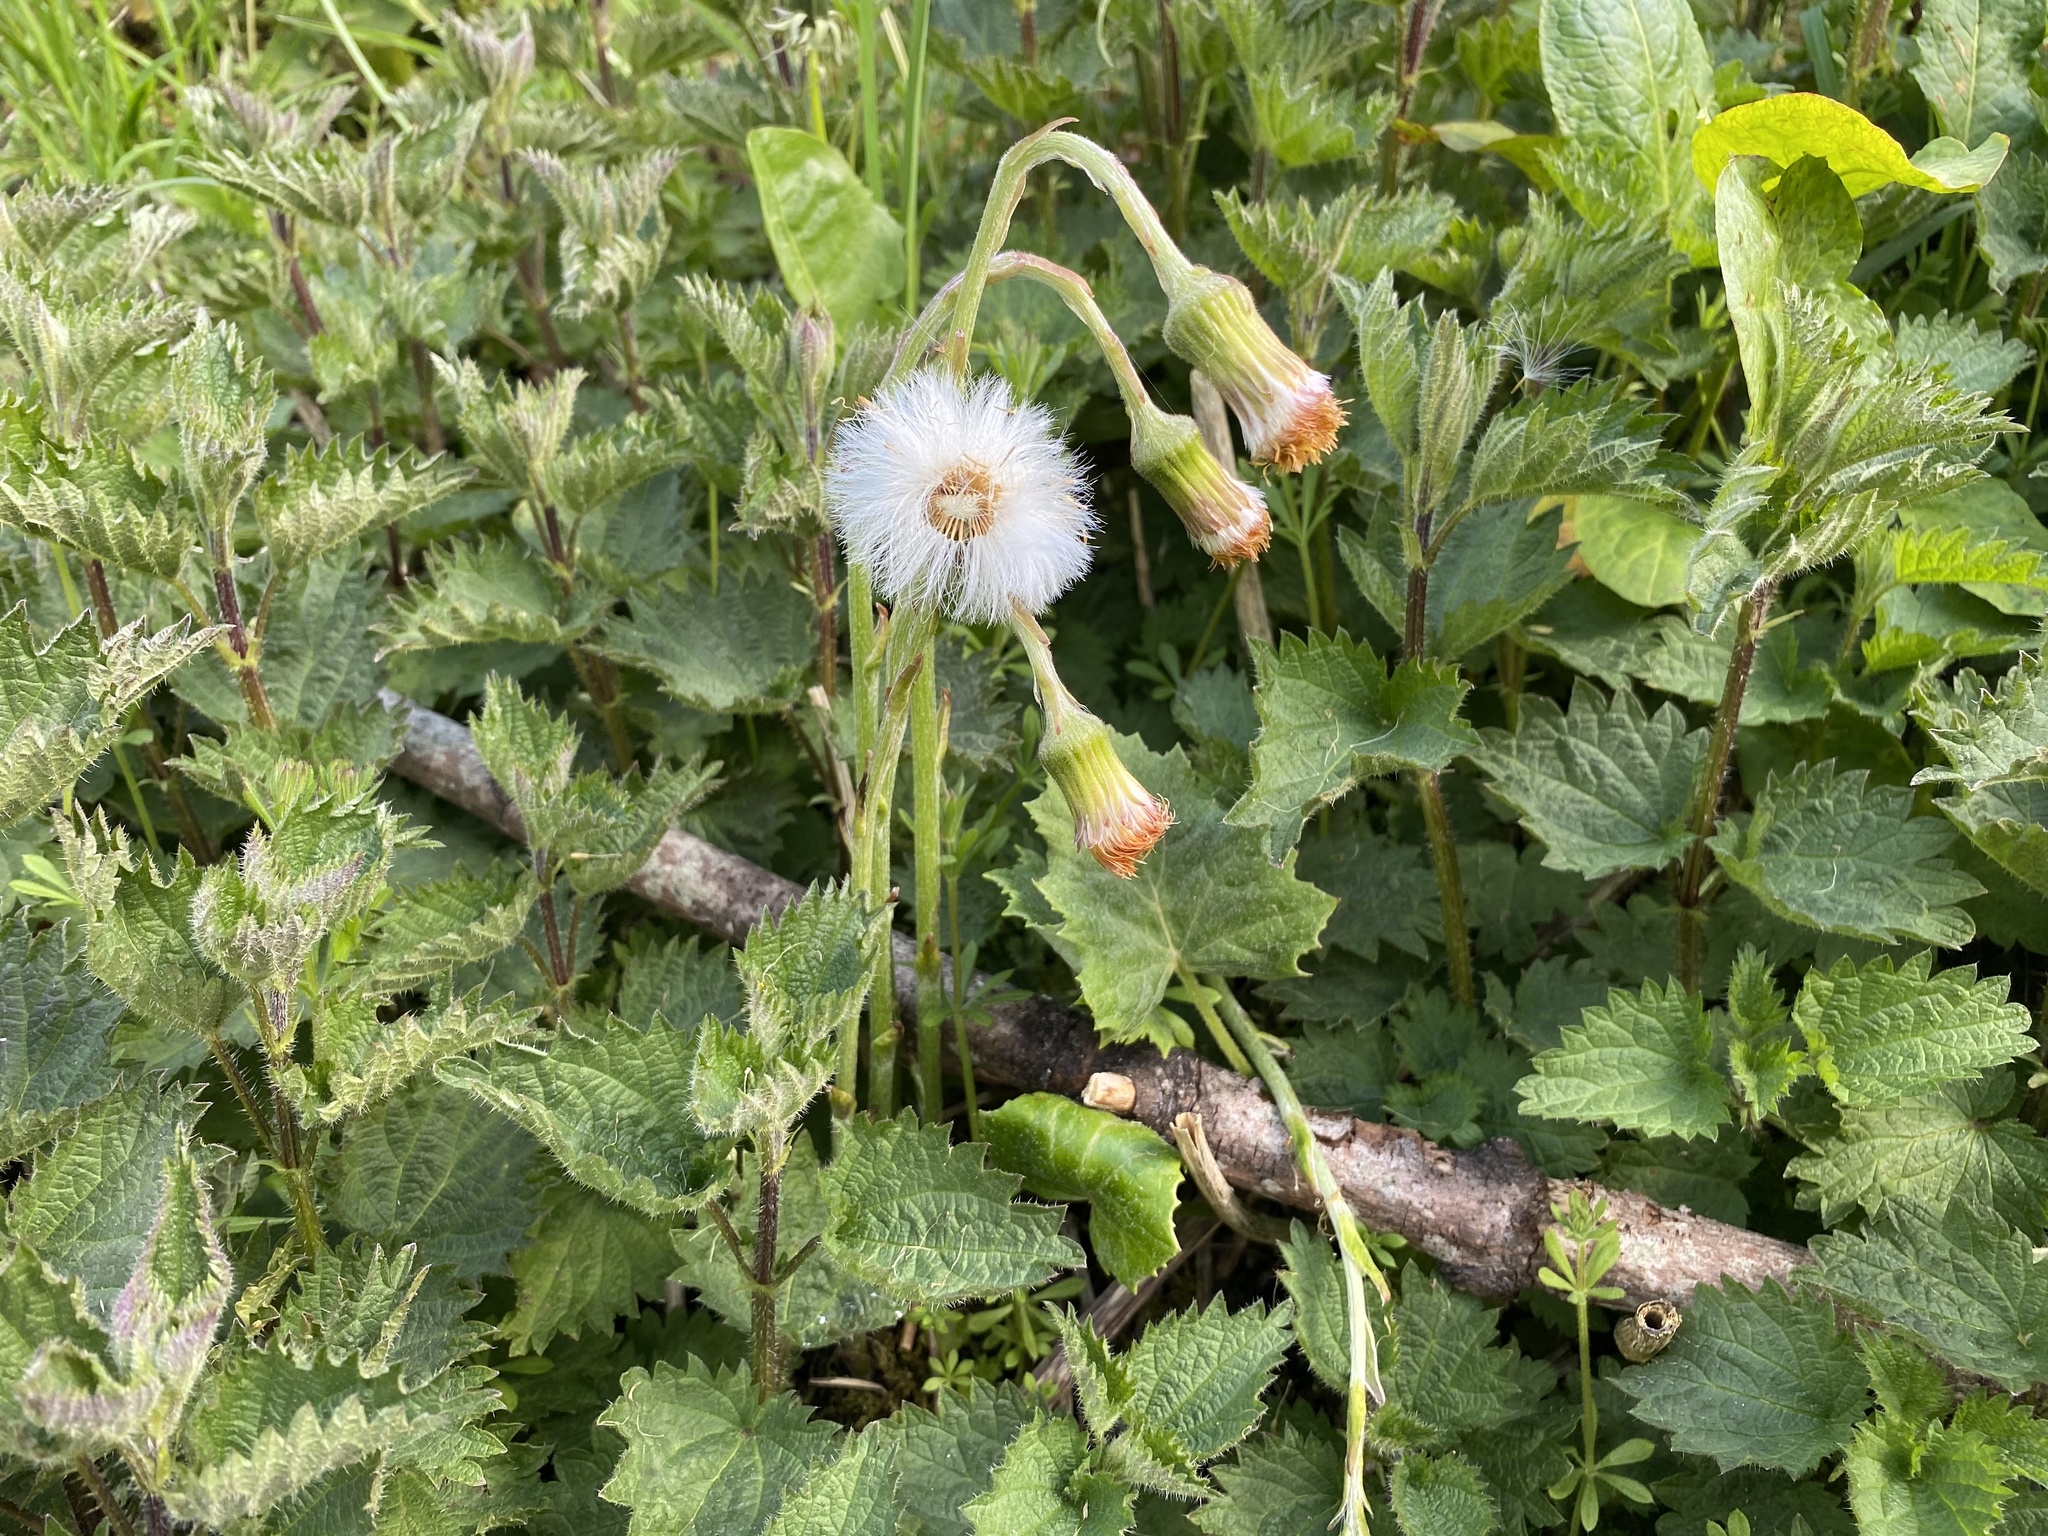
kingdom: Plantae
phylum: Tracheophyta
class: Magnoliopsida
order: Asterales
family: Asteraceae
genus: Tussilago
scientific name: Tussilago farfara
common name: Coltsfoot
